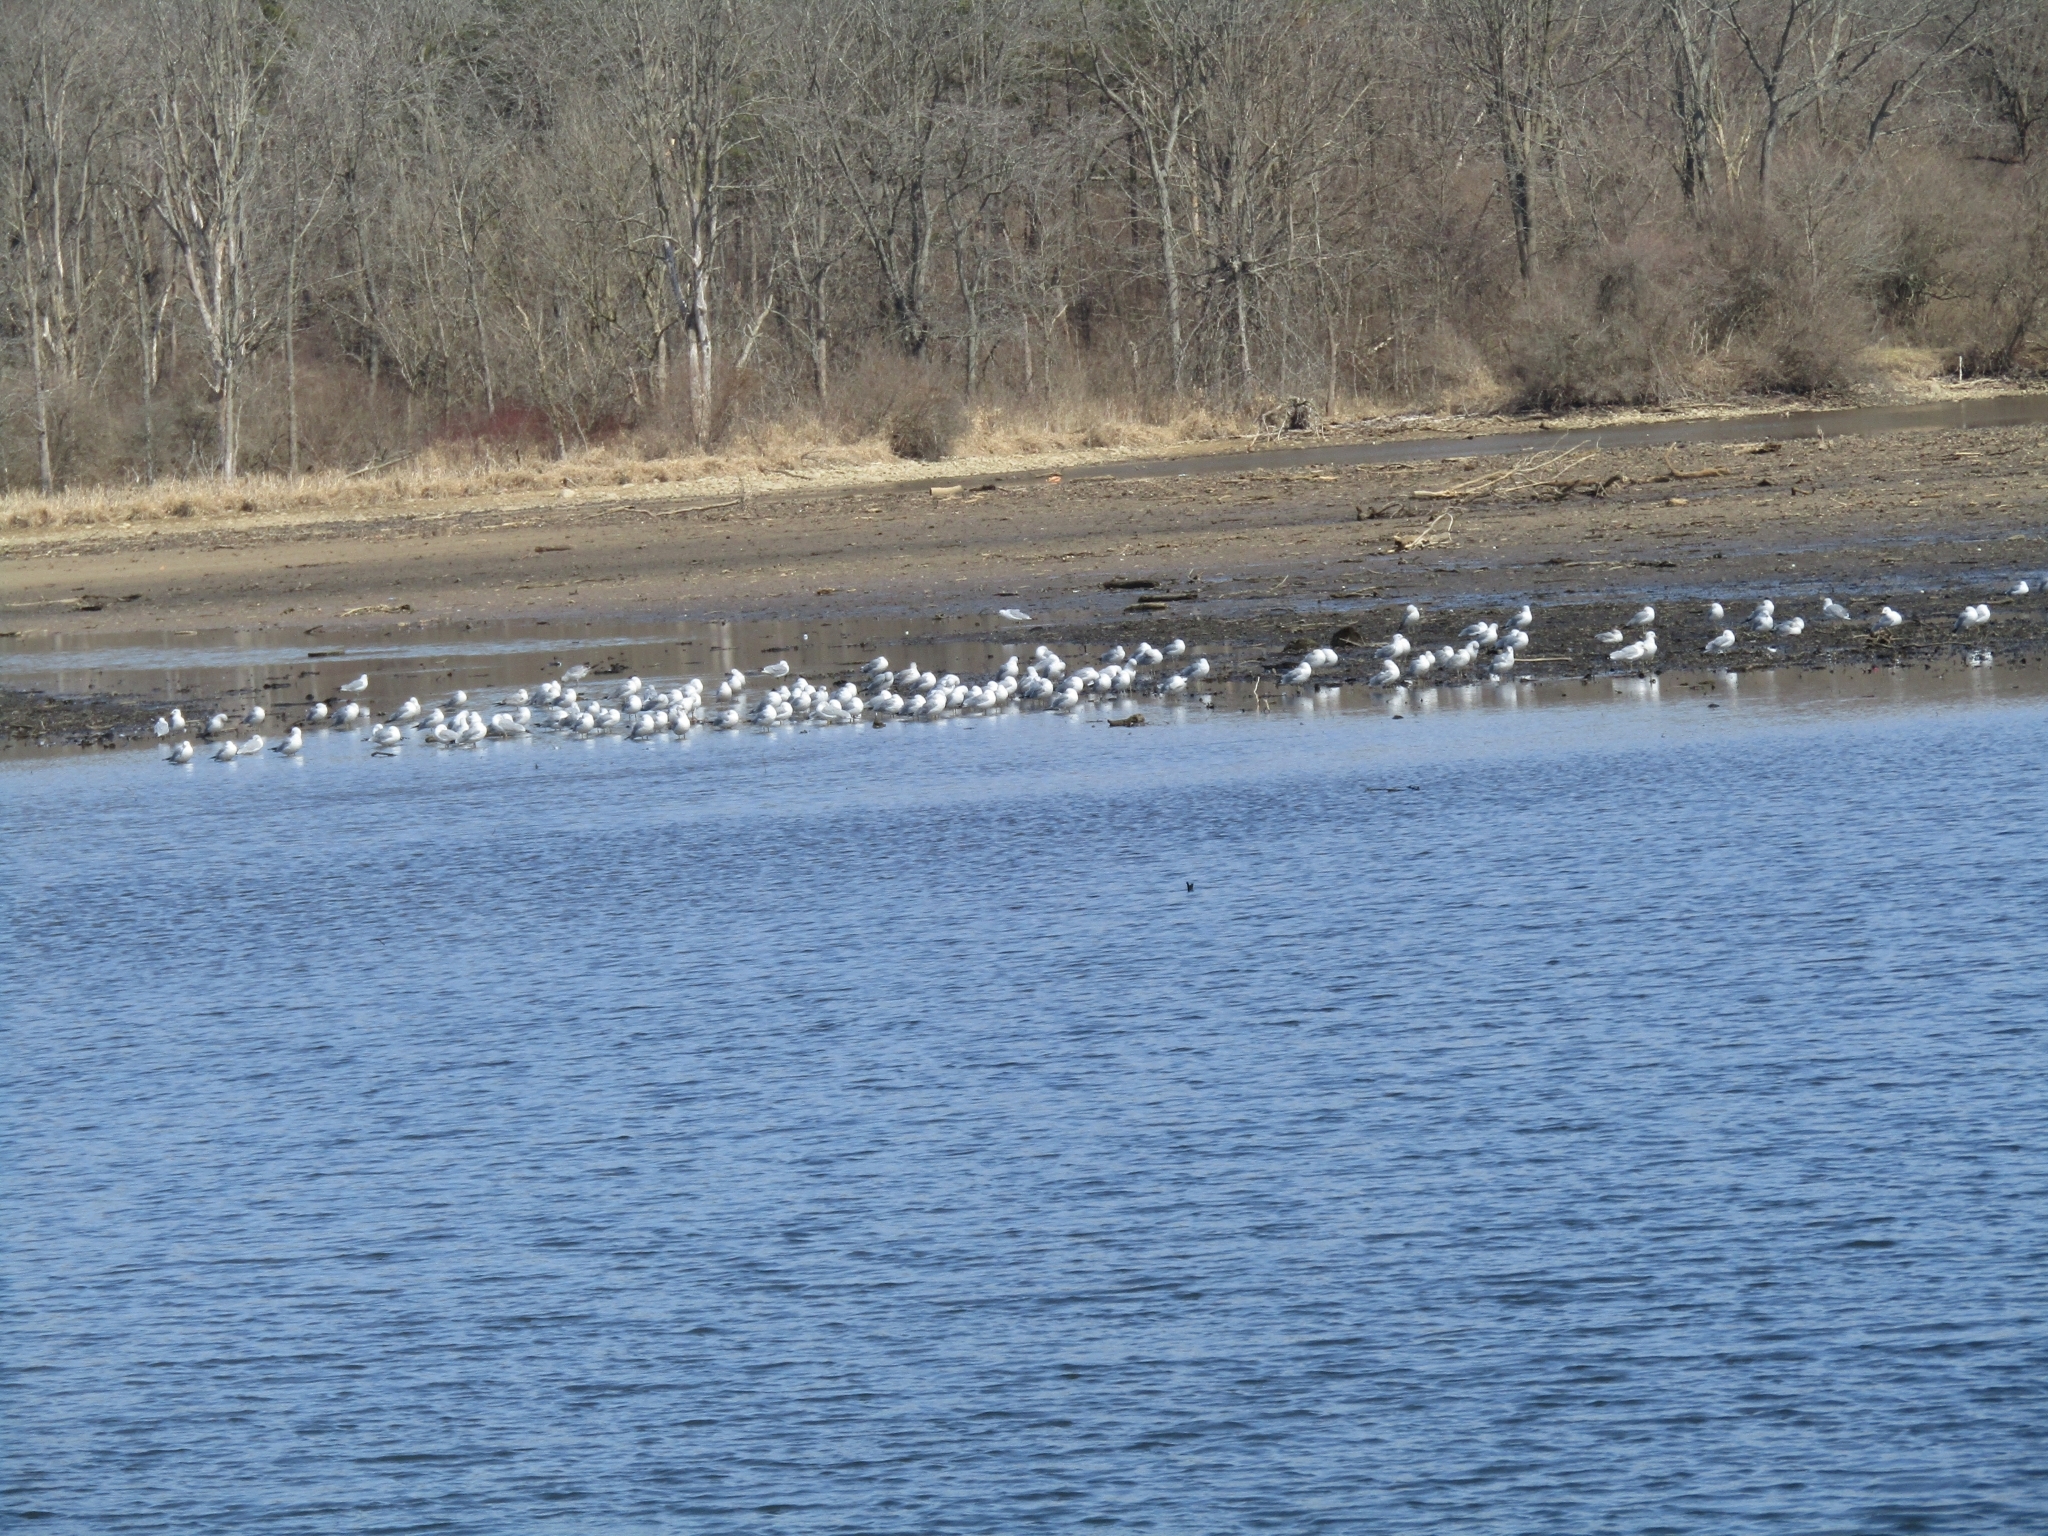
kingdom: Animalia
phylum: Chordata
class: Aves
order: Charadriiformes
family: Laridae
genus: Larus
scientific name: Larus delawarensis
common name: Ring-billed gull
